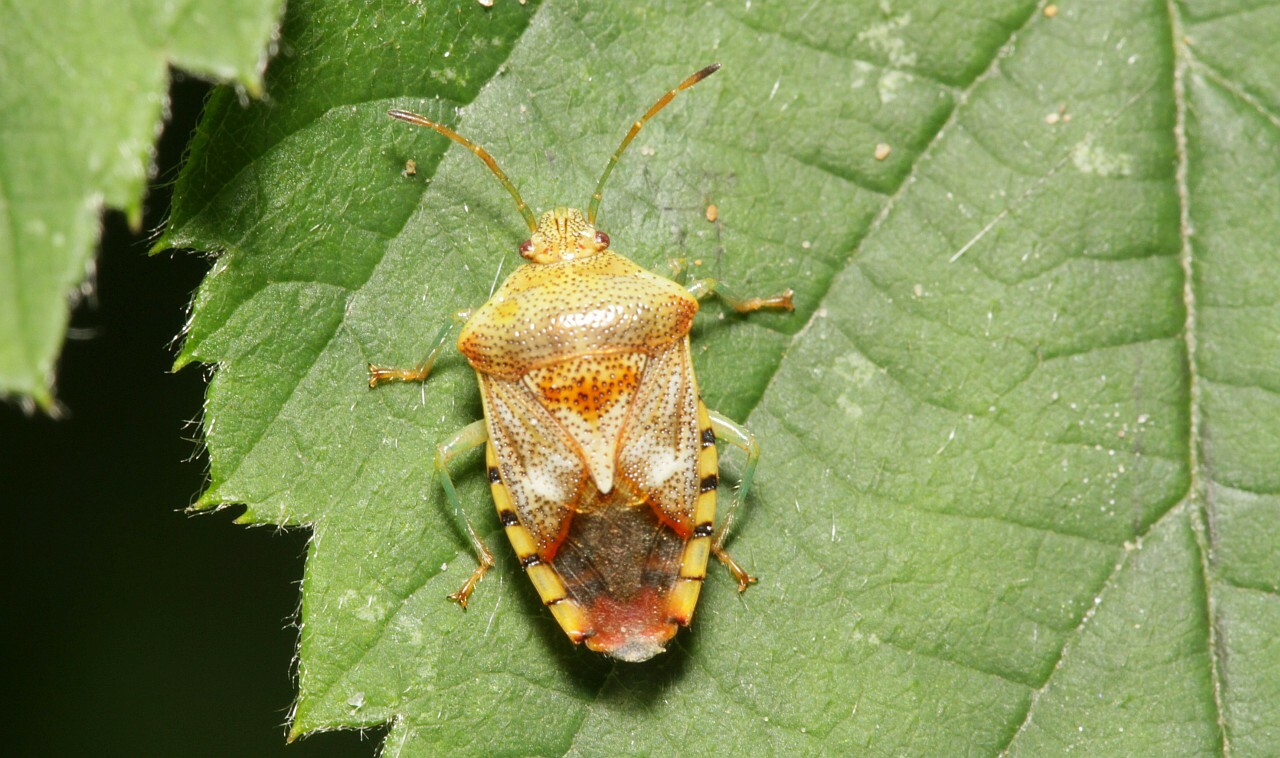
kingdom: Animalia
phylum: Arthropoda
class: Insecta
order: Hemiptera
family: Acanthosomatidae
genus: Elasmucha
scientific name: Elasmucha grisea
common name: Parent bug
